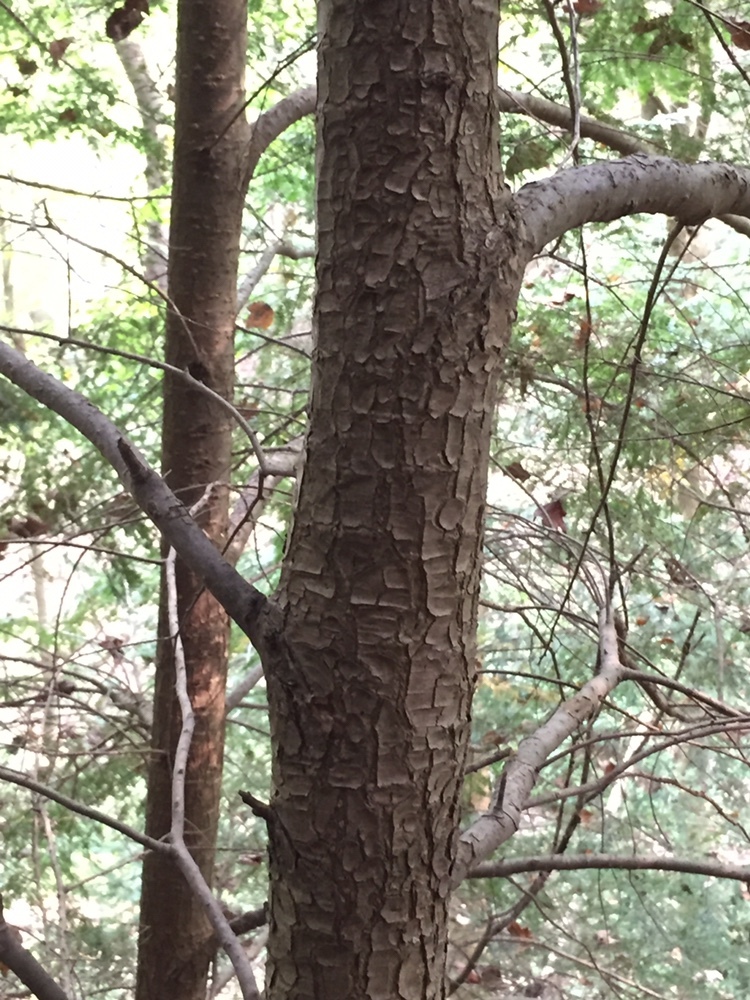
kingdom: Plantae
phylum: Tracheophyta
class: Pinopsida
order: Pinales
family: Pinaceae
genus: Tsuga
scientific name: Tsuga canadensis
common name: Eastern hemlock
